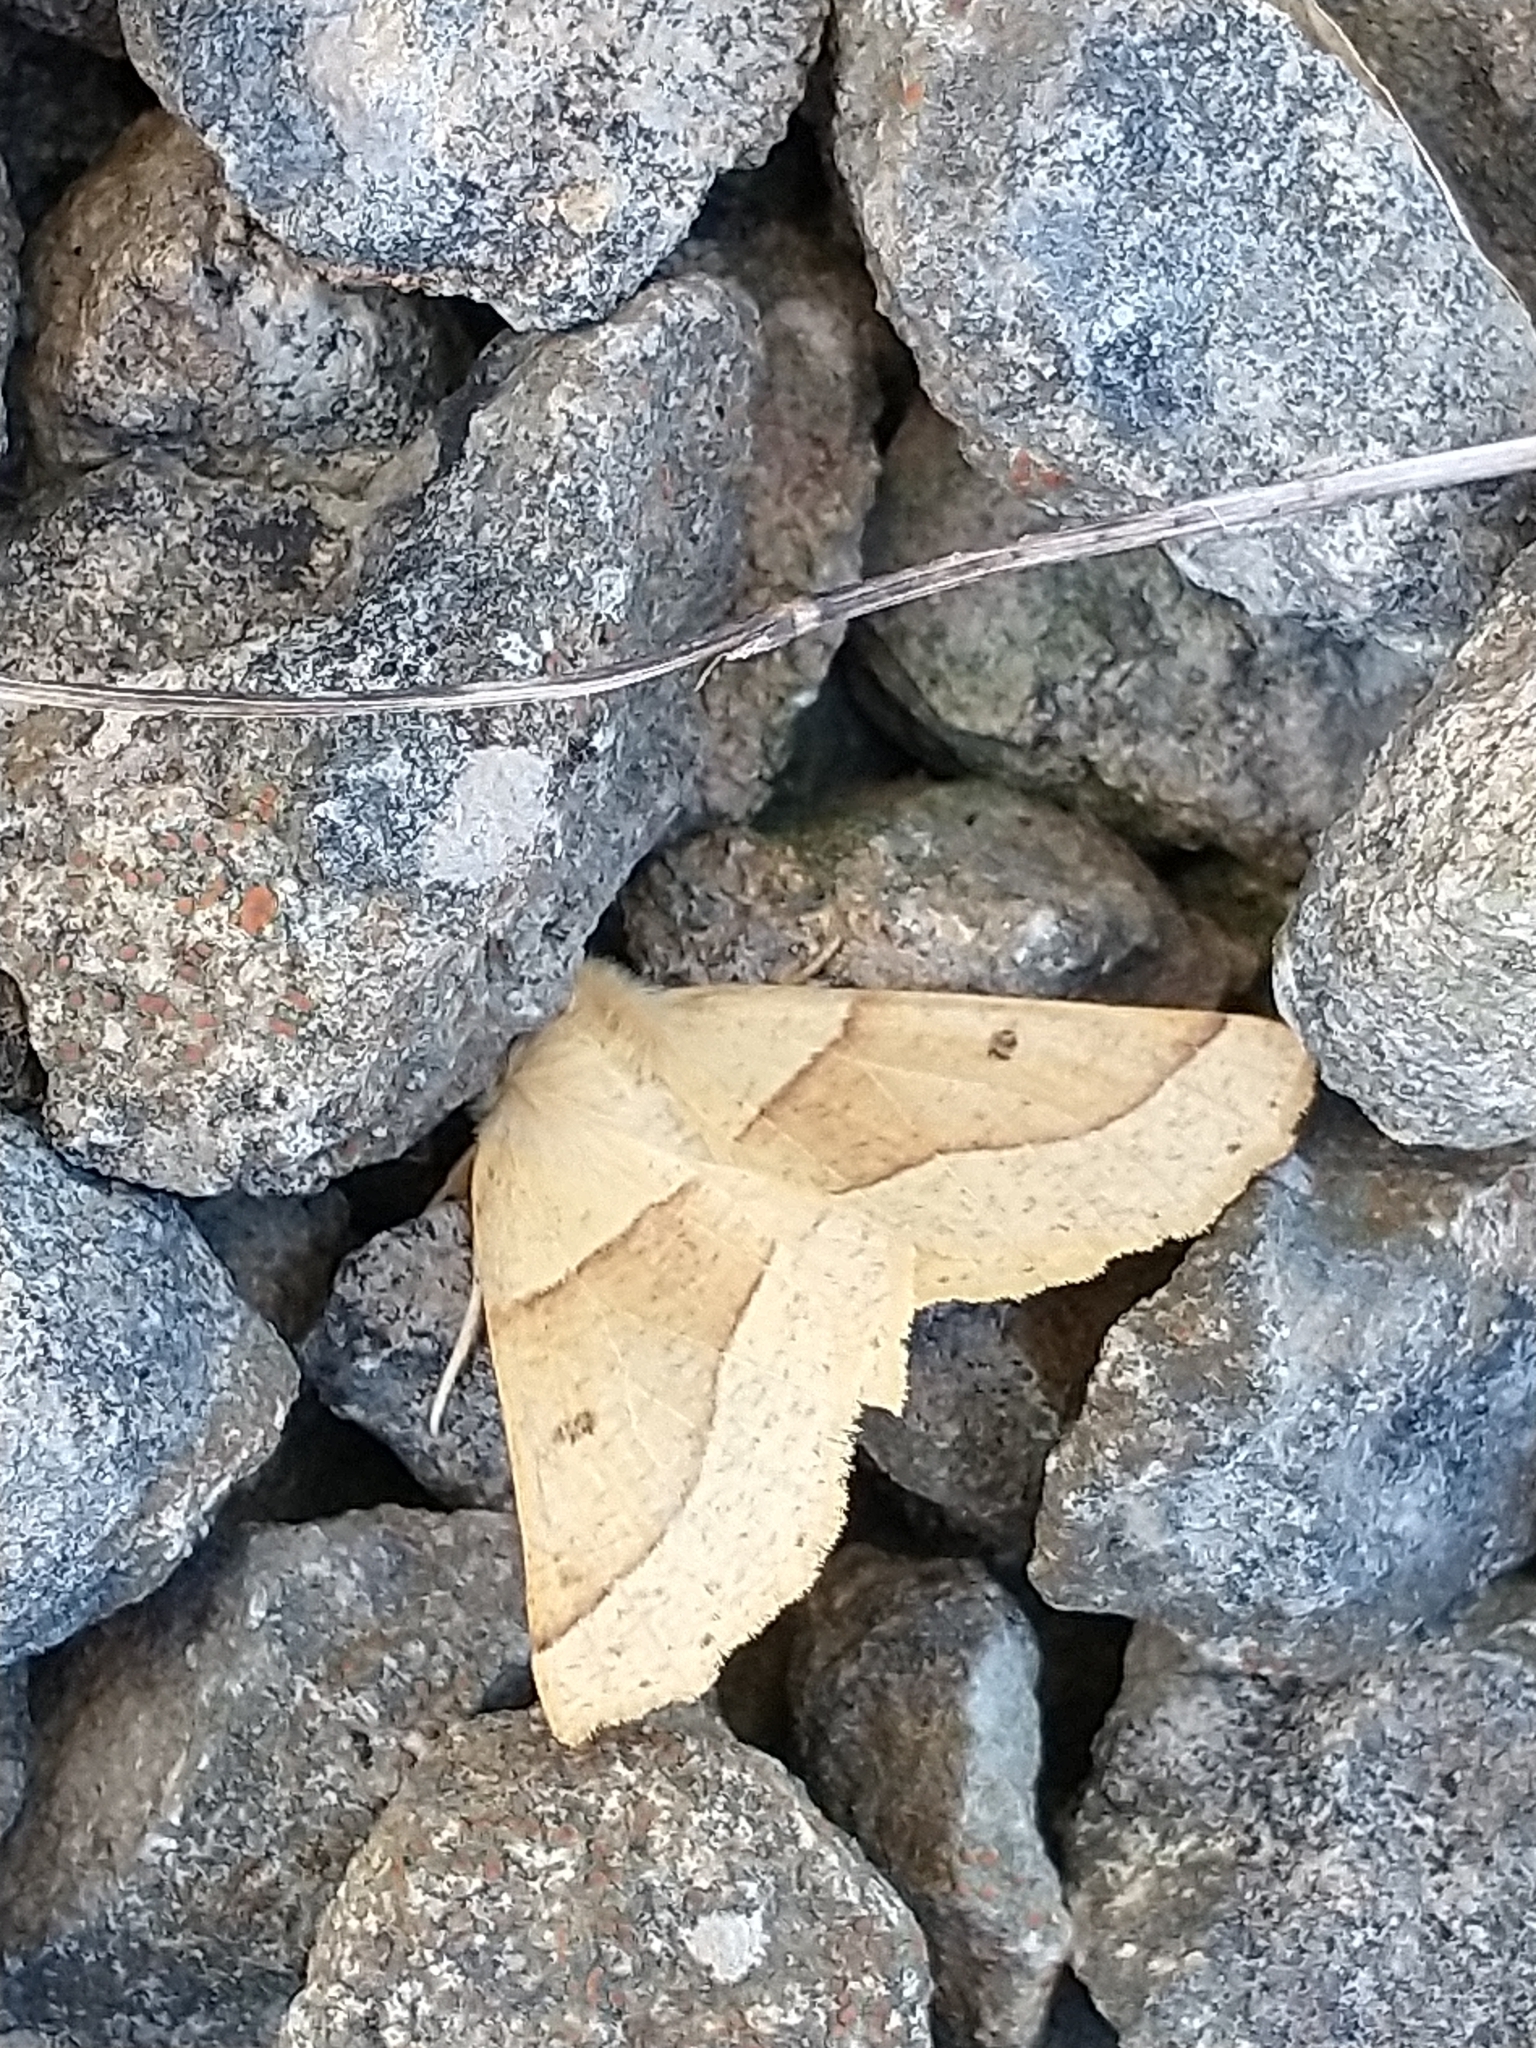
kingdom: Animalia
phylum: Arthropoda
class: Insecta
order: Lepidoptera
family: Geometridae
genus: Crocallis
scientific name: Crocallis elinguaria
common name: Scalloped oak
